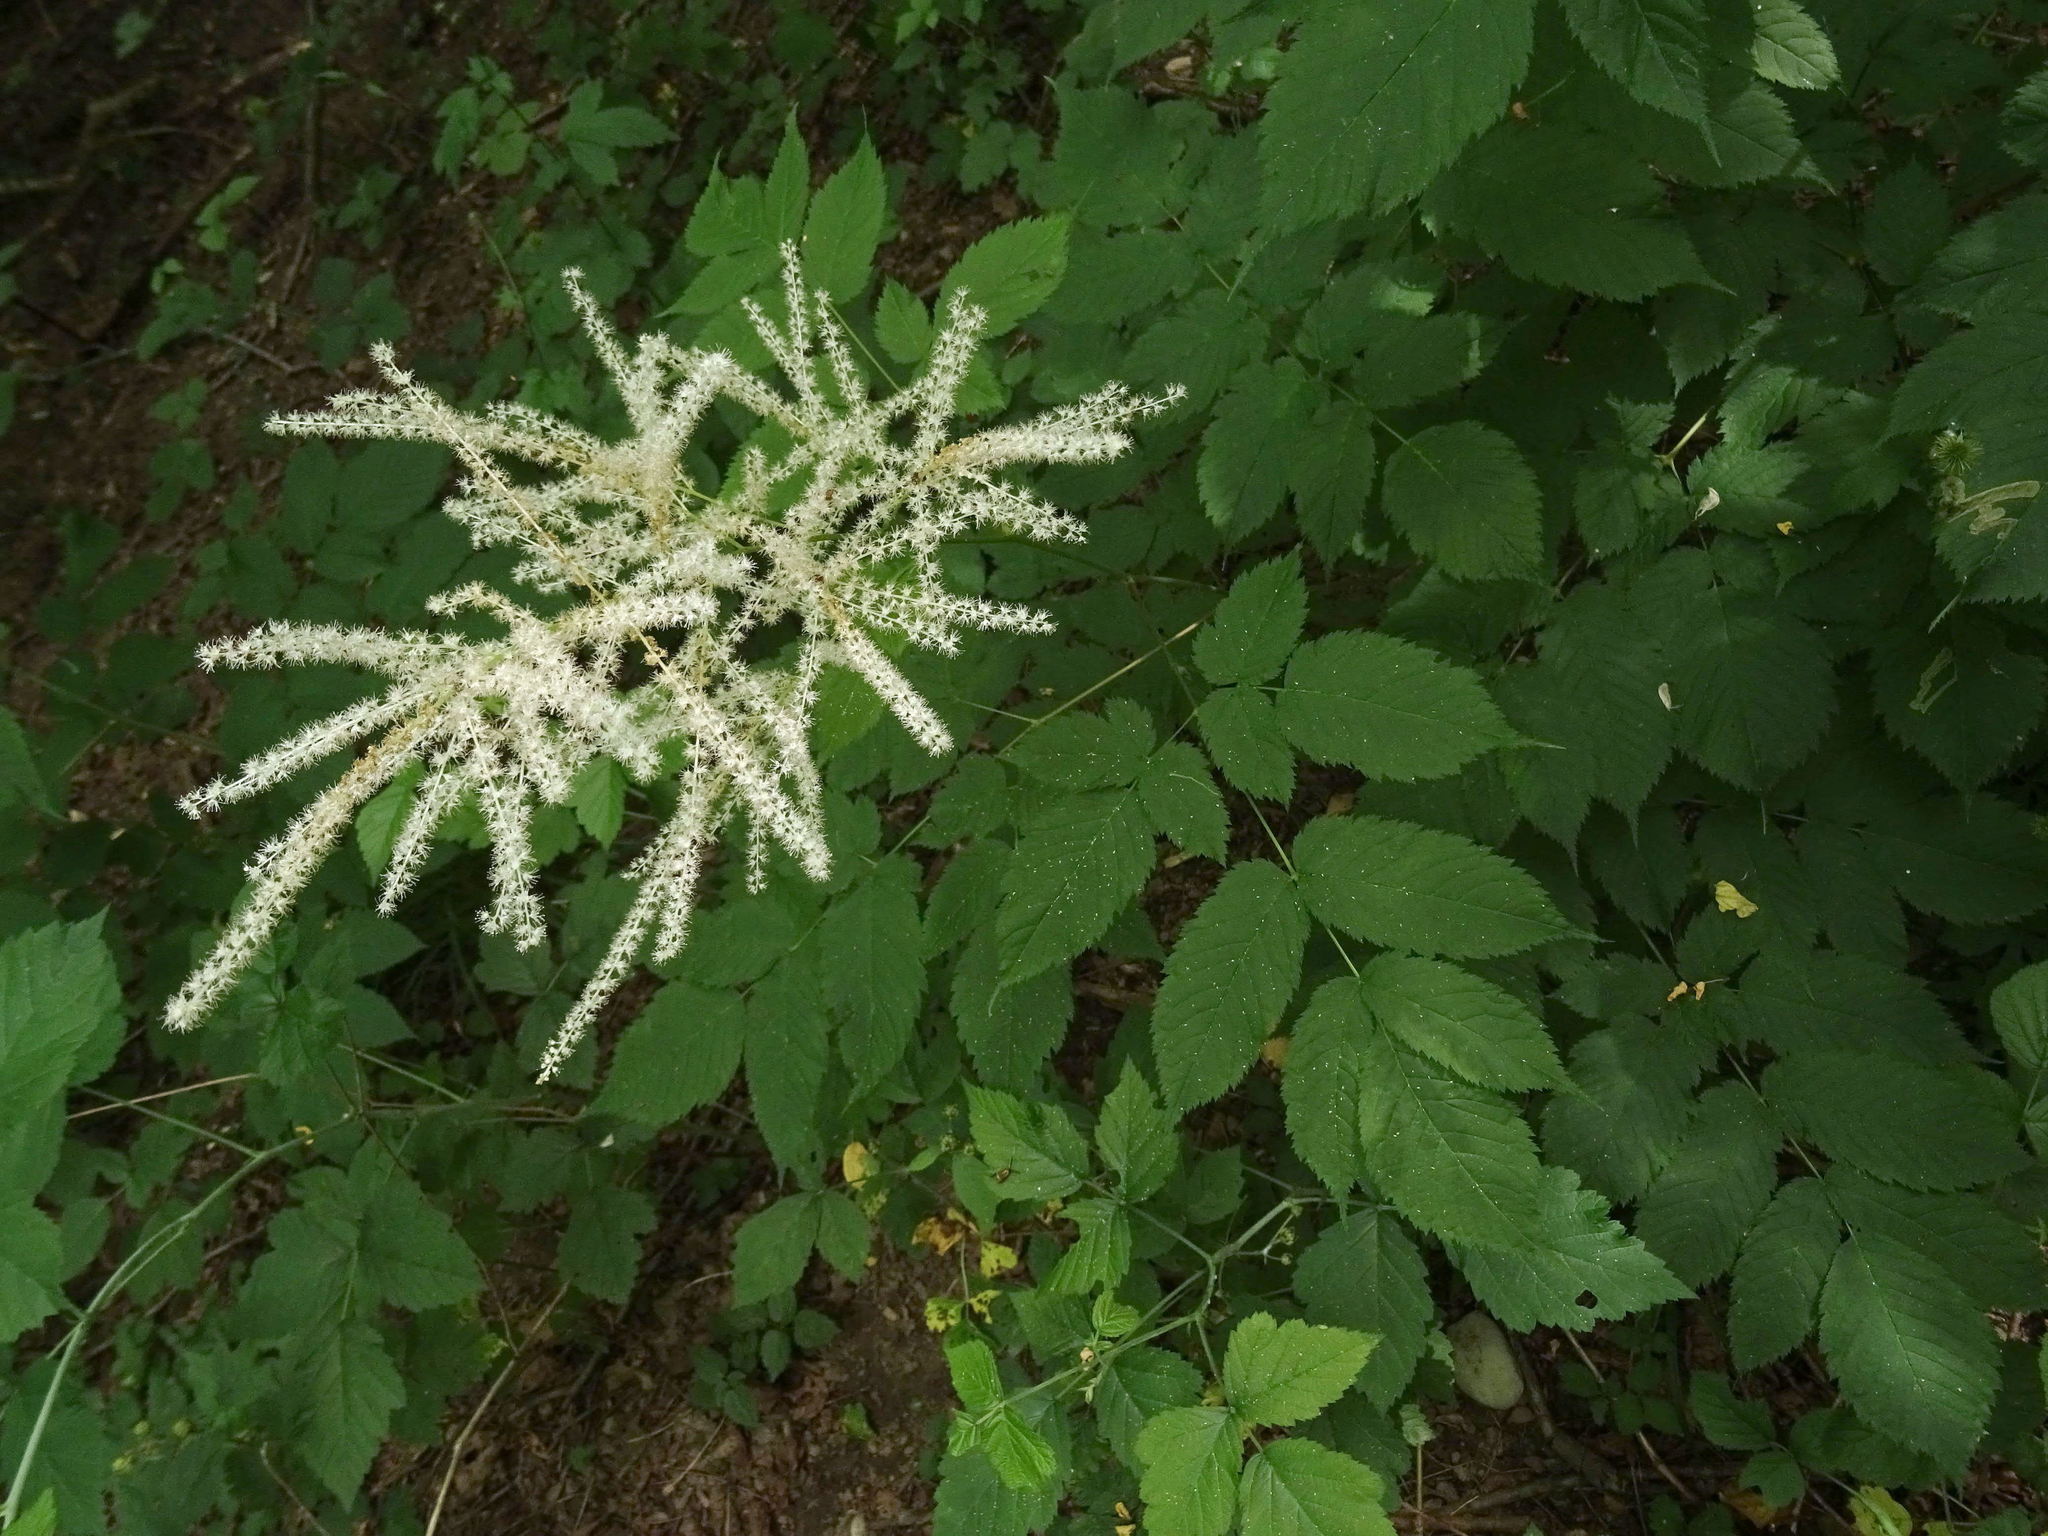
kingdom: Plantae
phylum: Tracheophyta
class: Magnoliopsida
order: Rosales
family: Rosaceae
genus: Aruncus
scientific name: Aruncus dioicus
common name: Buck's-beard
